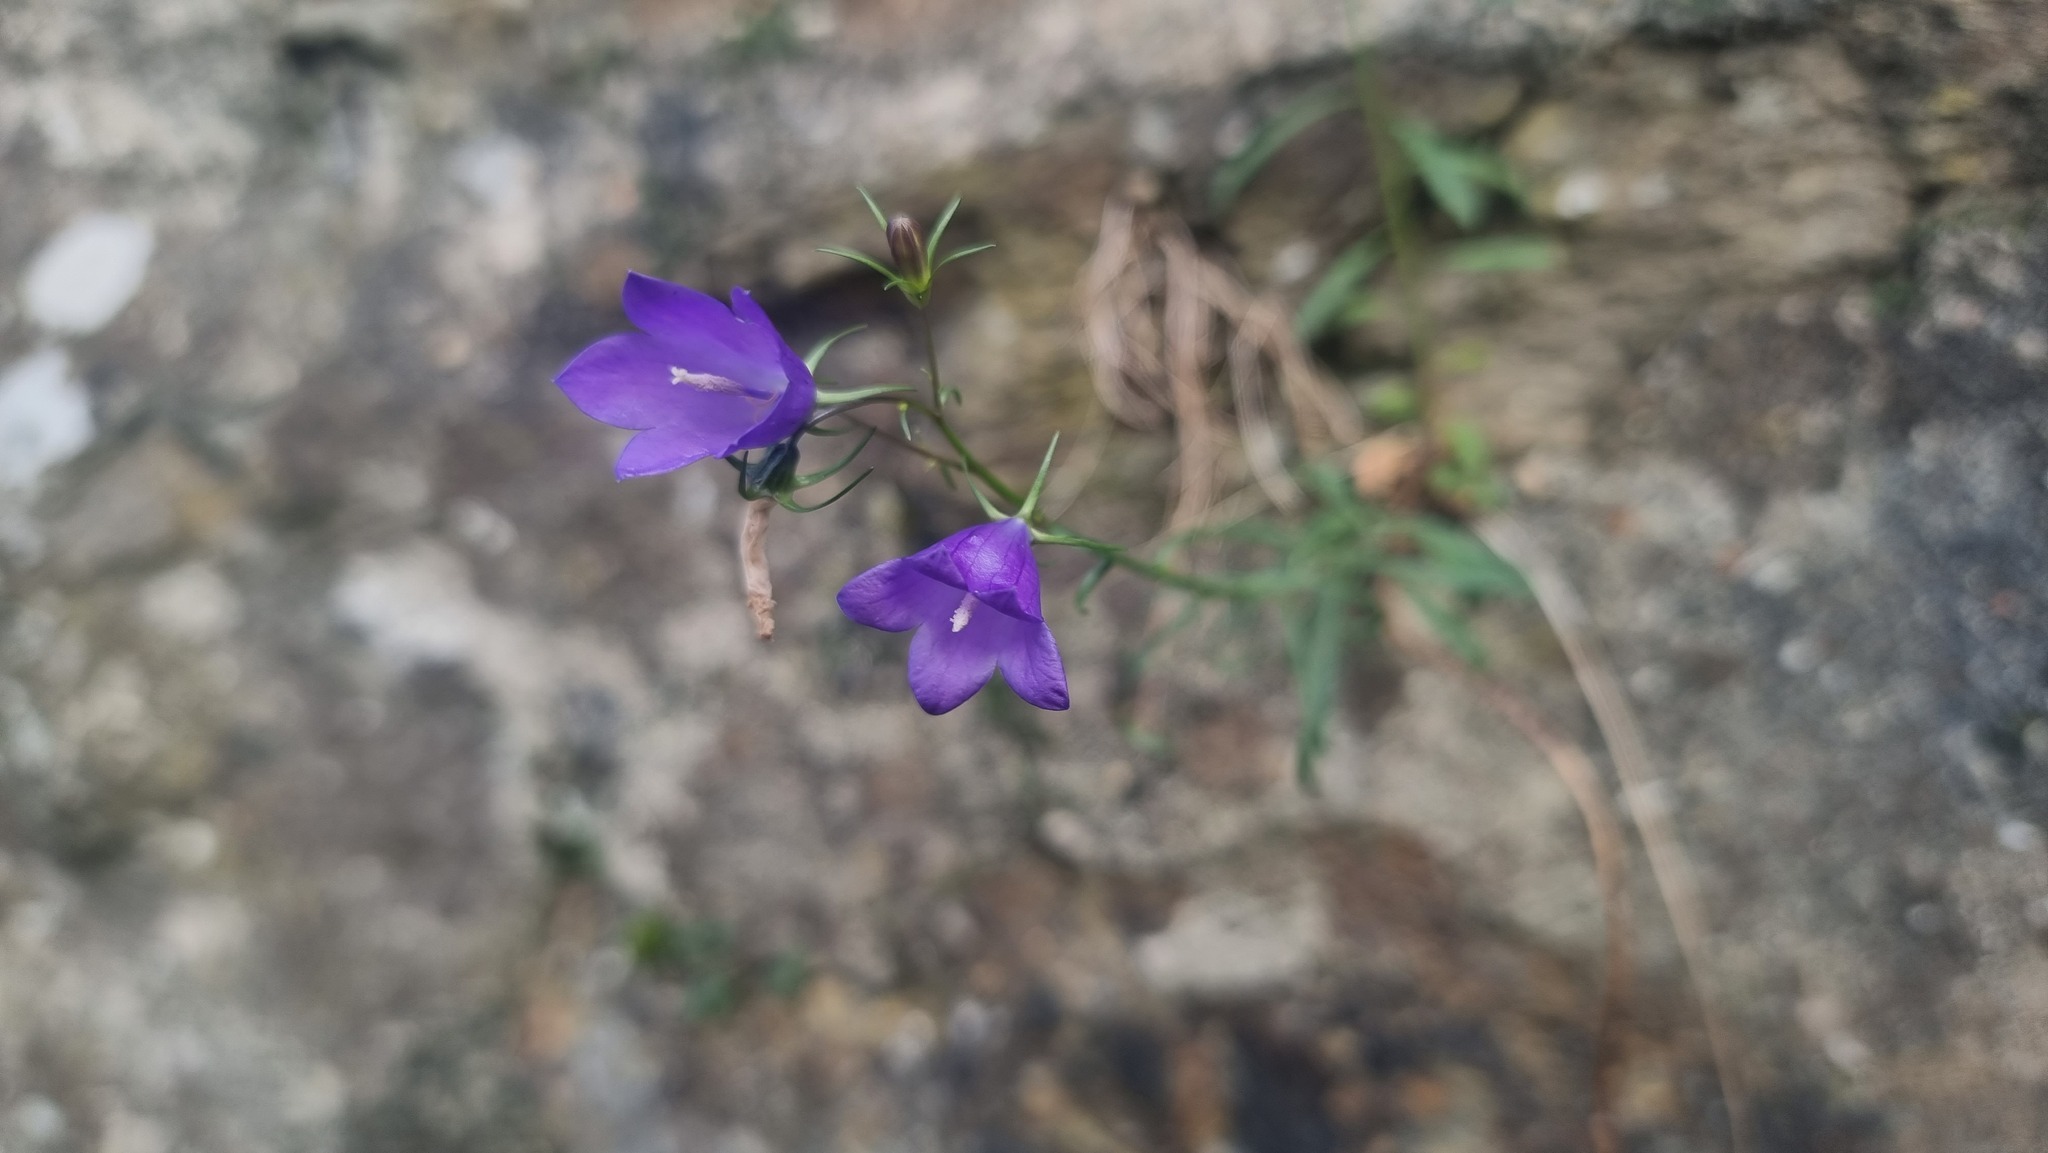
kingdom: Plantae
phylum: Tracheophyta
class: Magnoliopsida
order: Asterales
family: Campanulaceae
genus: Campanula
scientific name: Campanula rotundifolia
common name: Harebell
